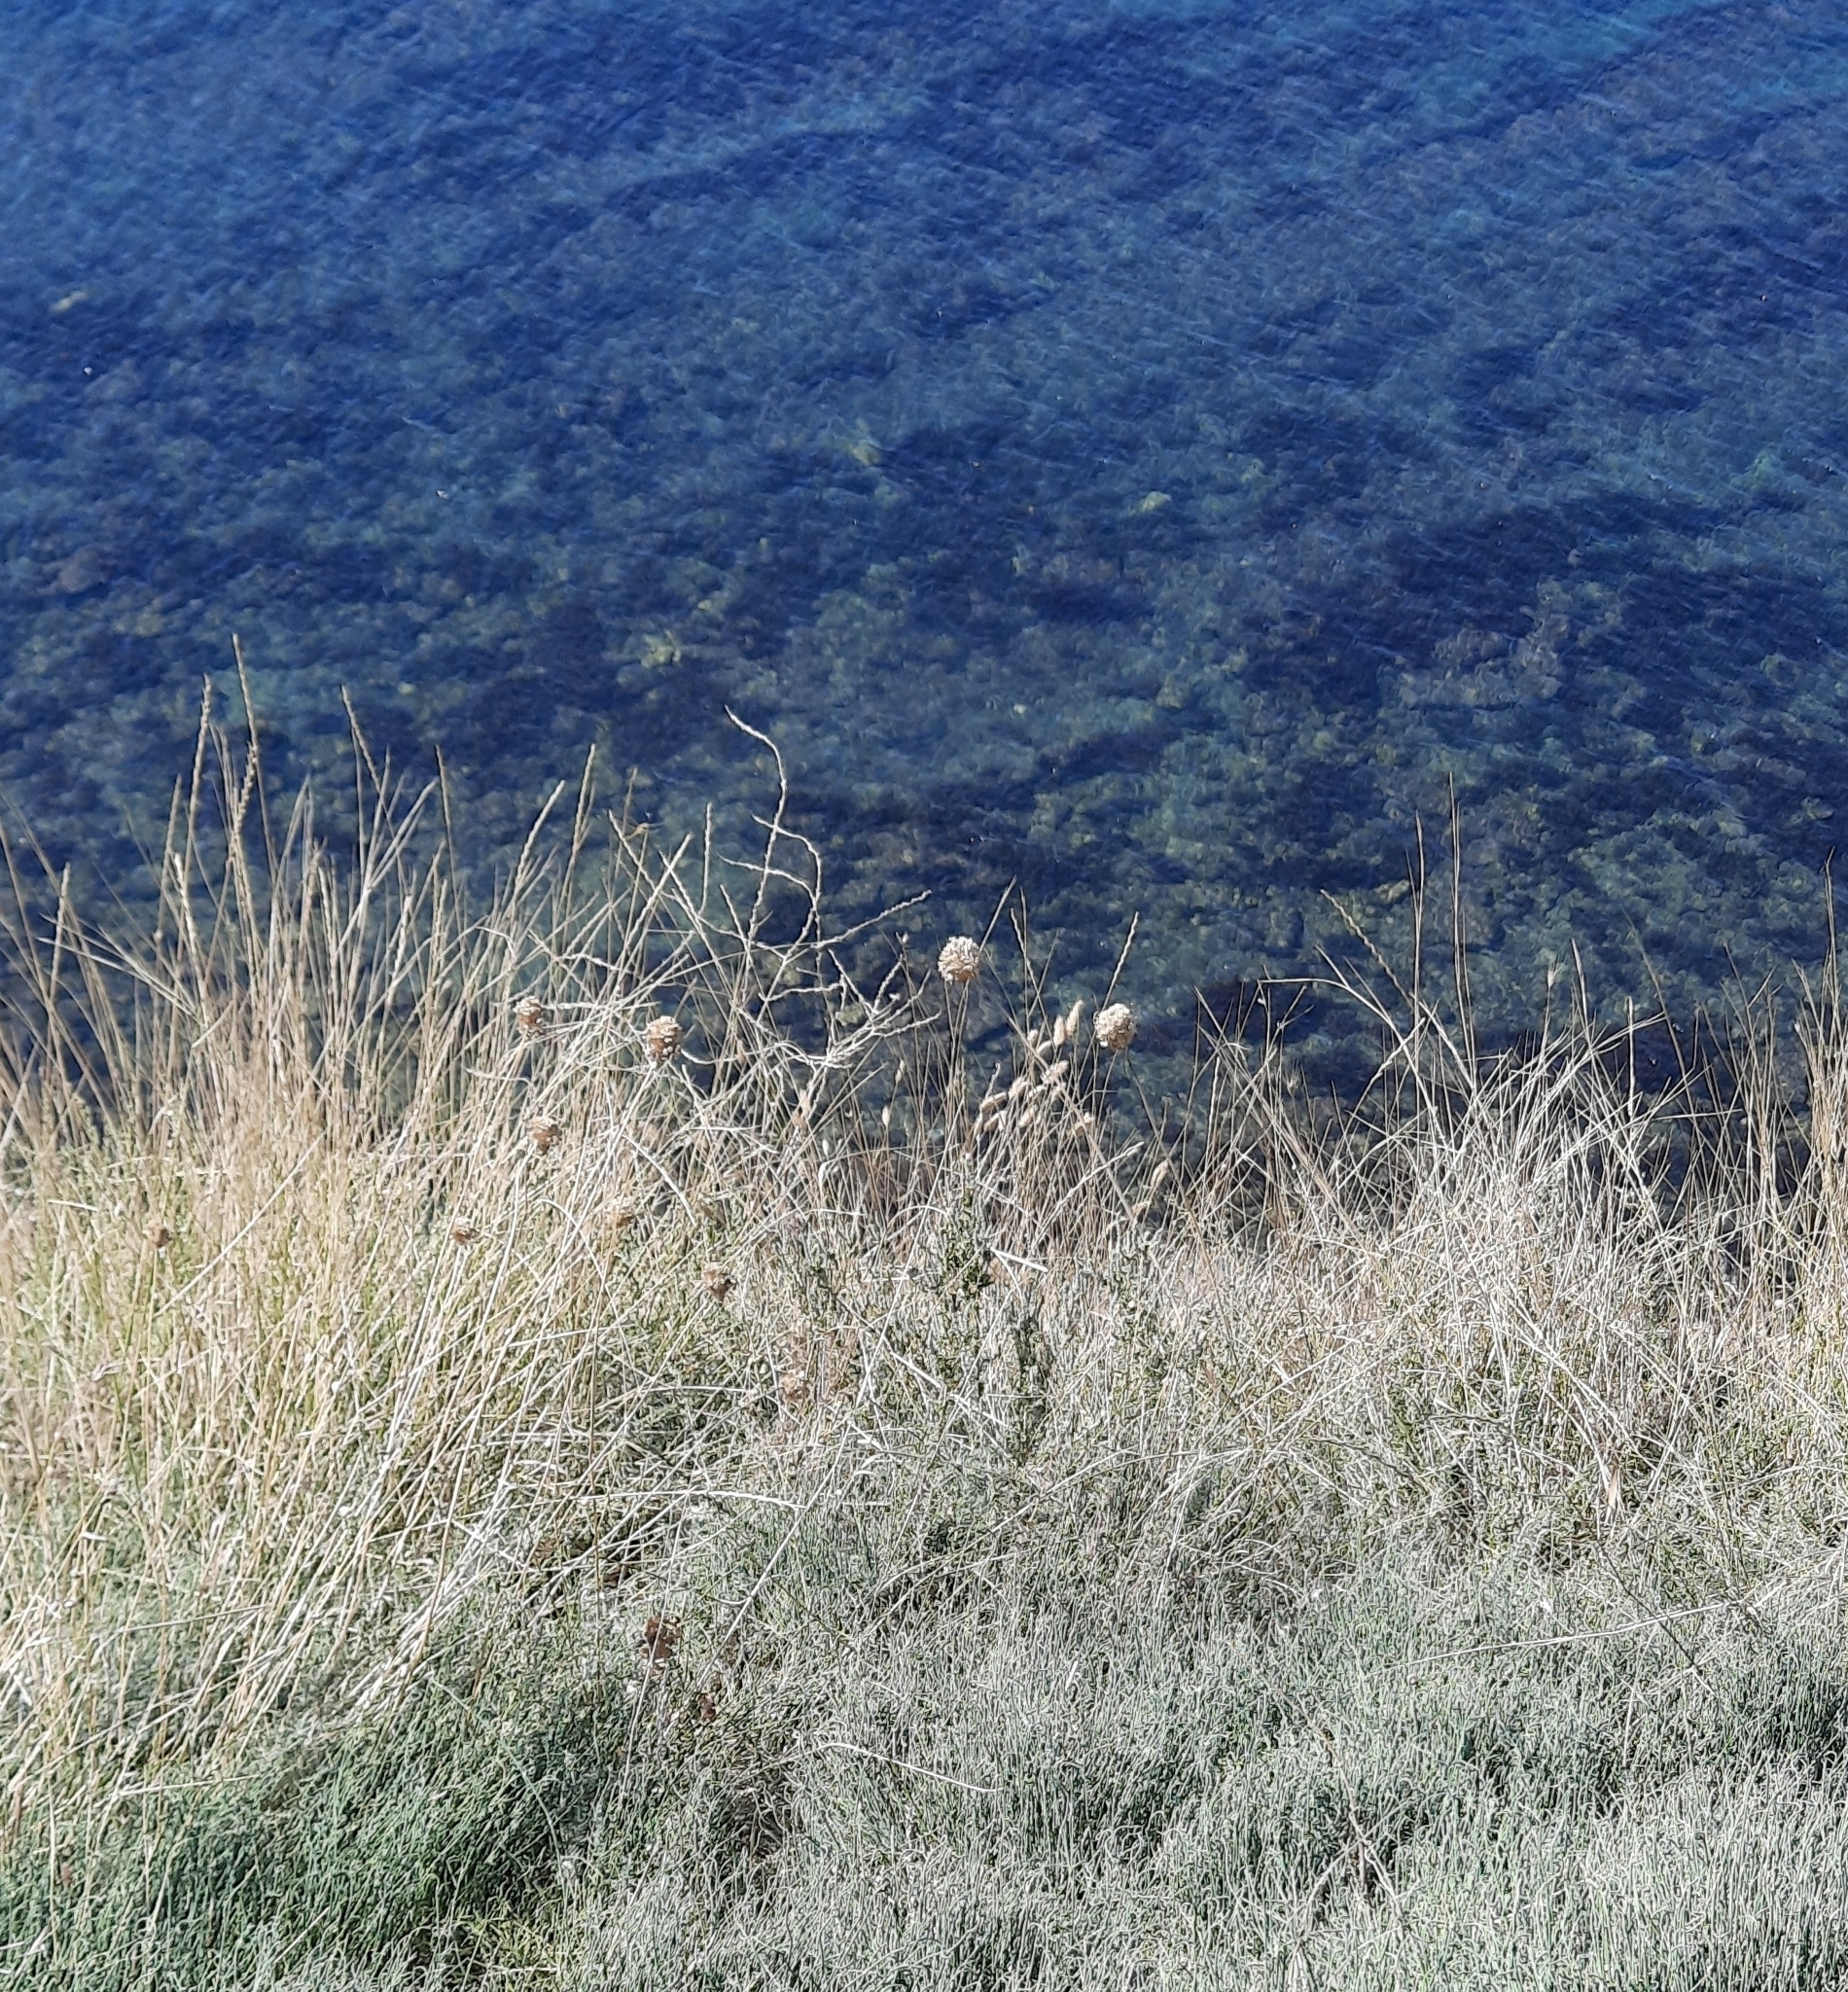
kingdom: Plantae
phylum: Tracheophyta
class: Liliopsida
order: Asparagales
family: Amaryllidaceae
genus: Allium
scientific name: Allium atroviolaceum
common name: Broadleaf wild leek
